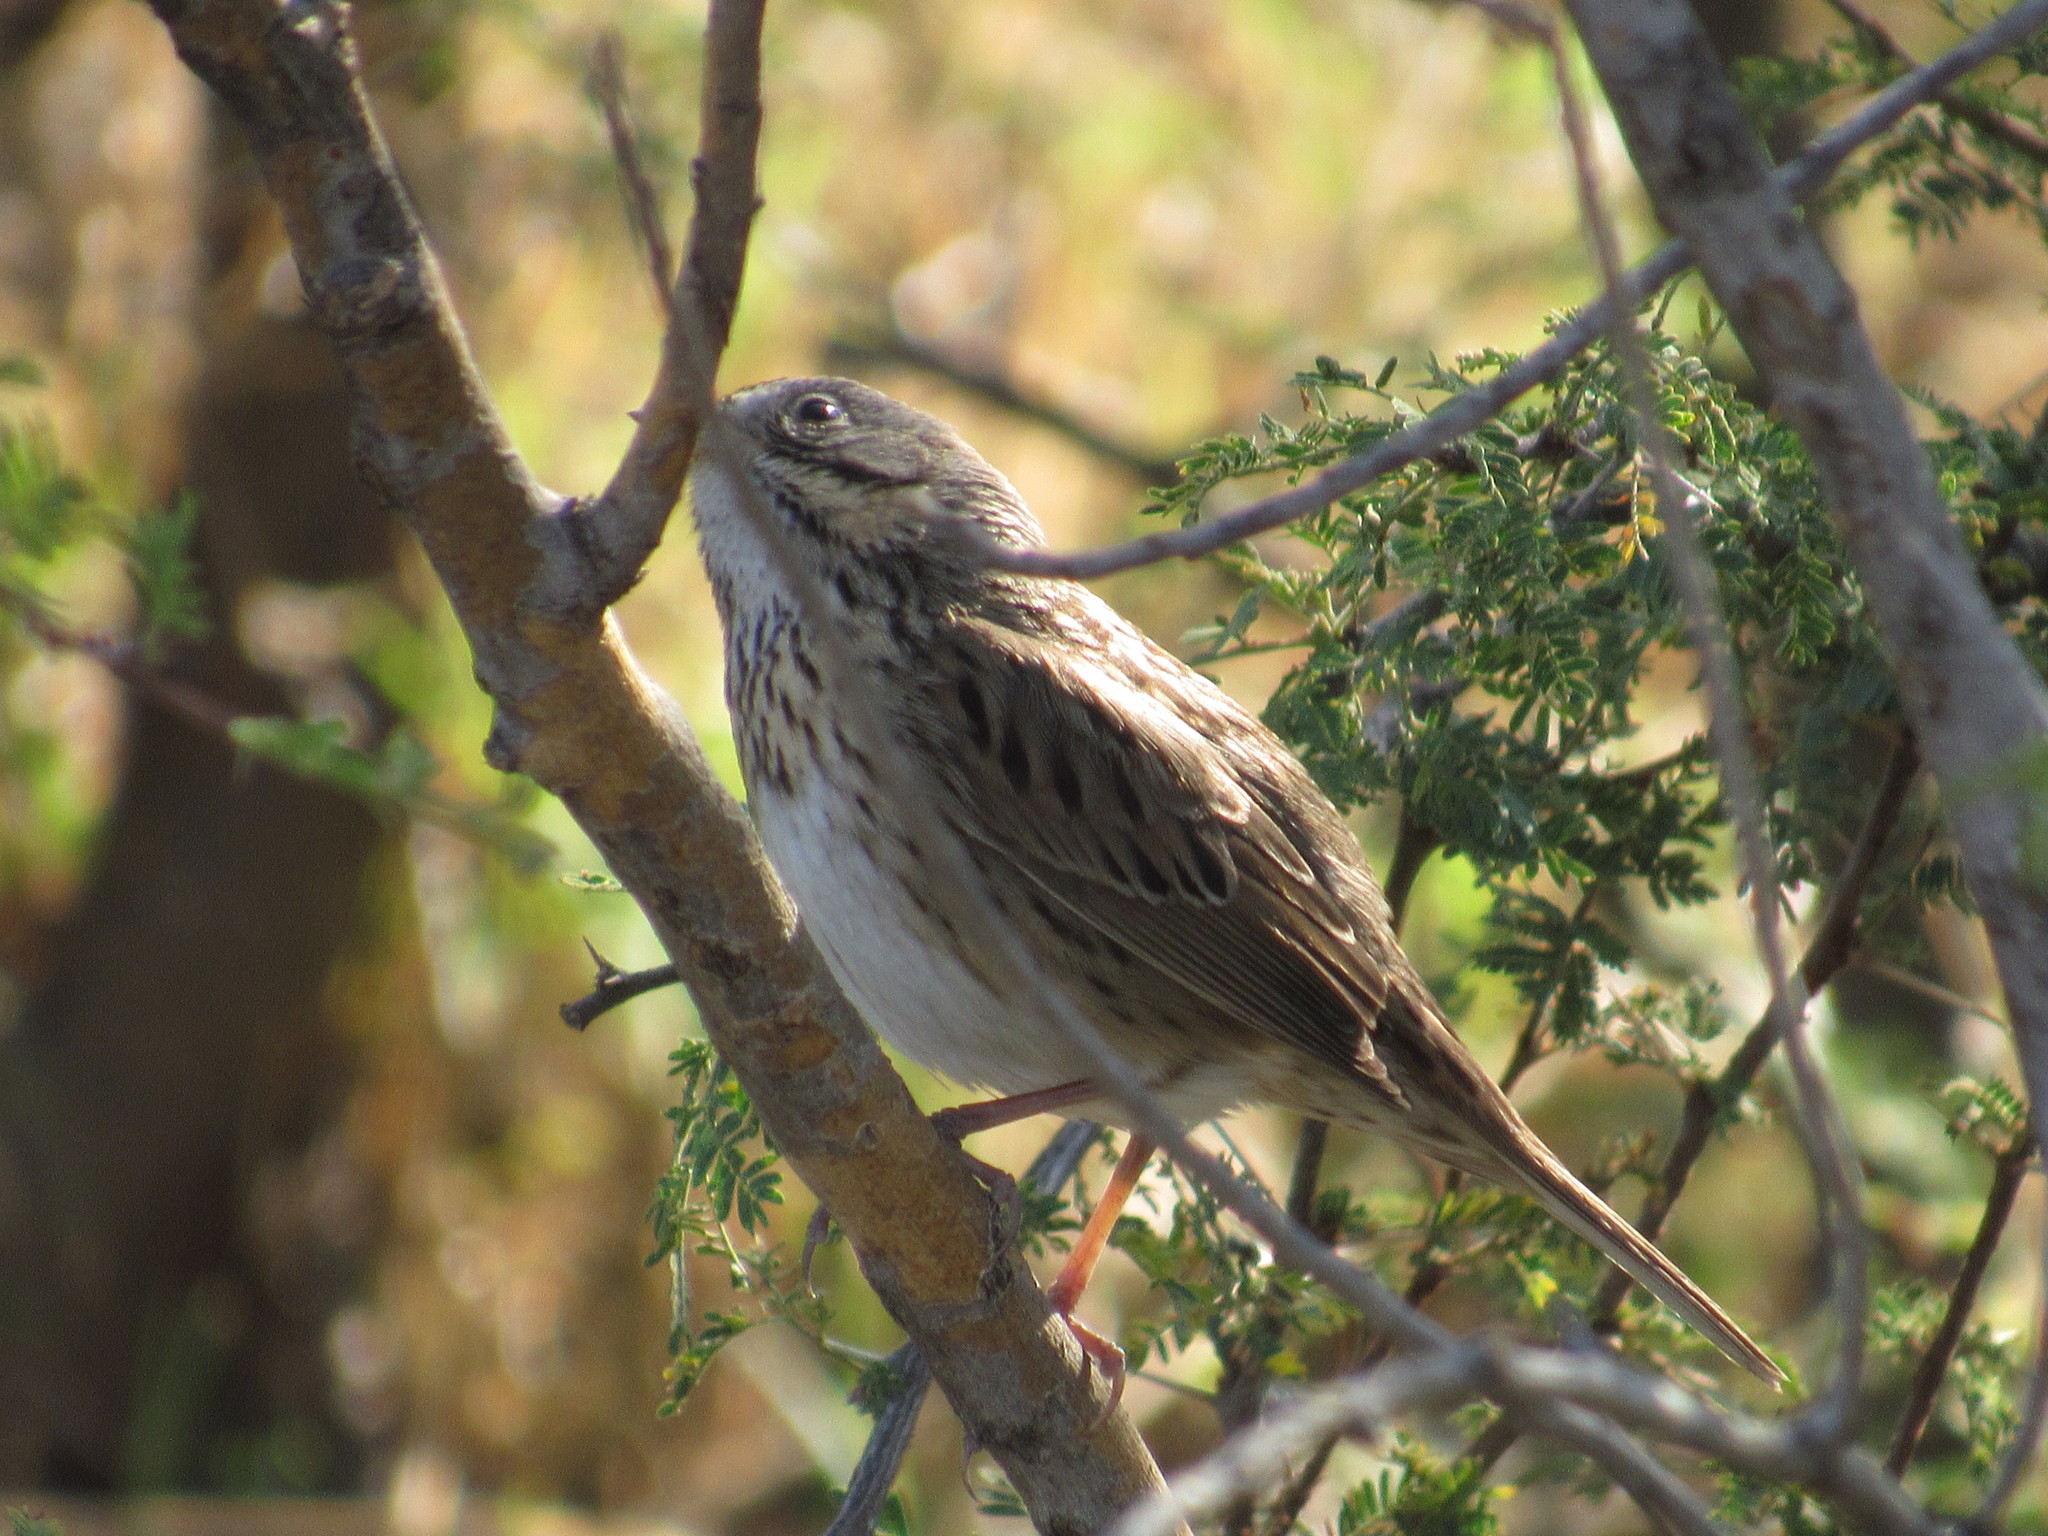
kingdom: Animalia
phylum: Chordata
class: Aves
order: Passeriformes
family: Passerellidae
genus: Melospiza
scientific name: Melospiza lincolnii
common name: Lincoln's sparrow
